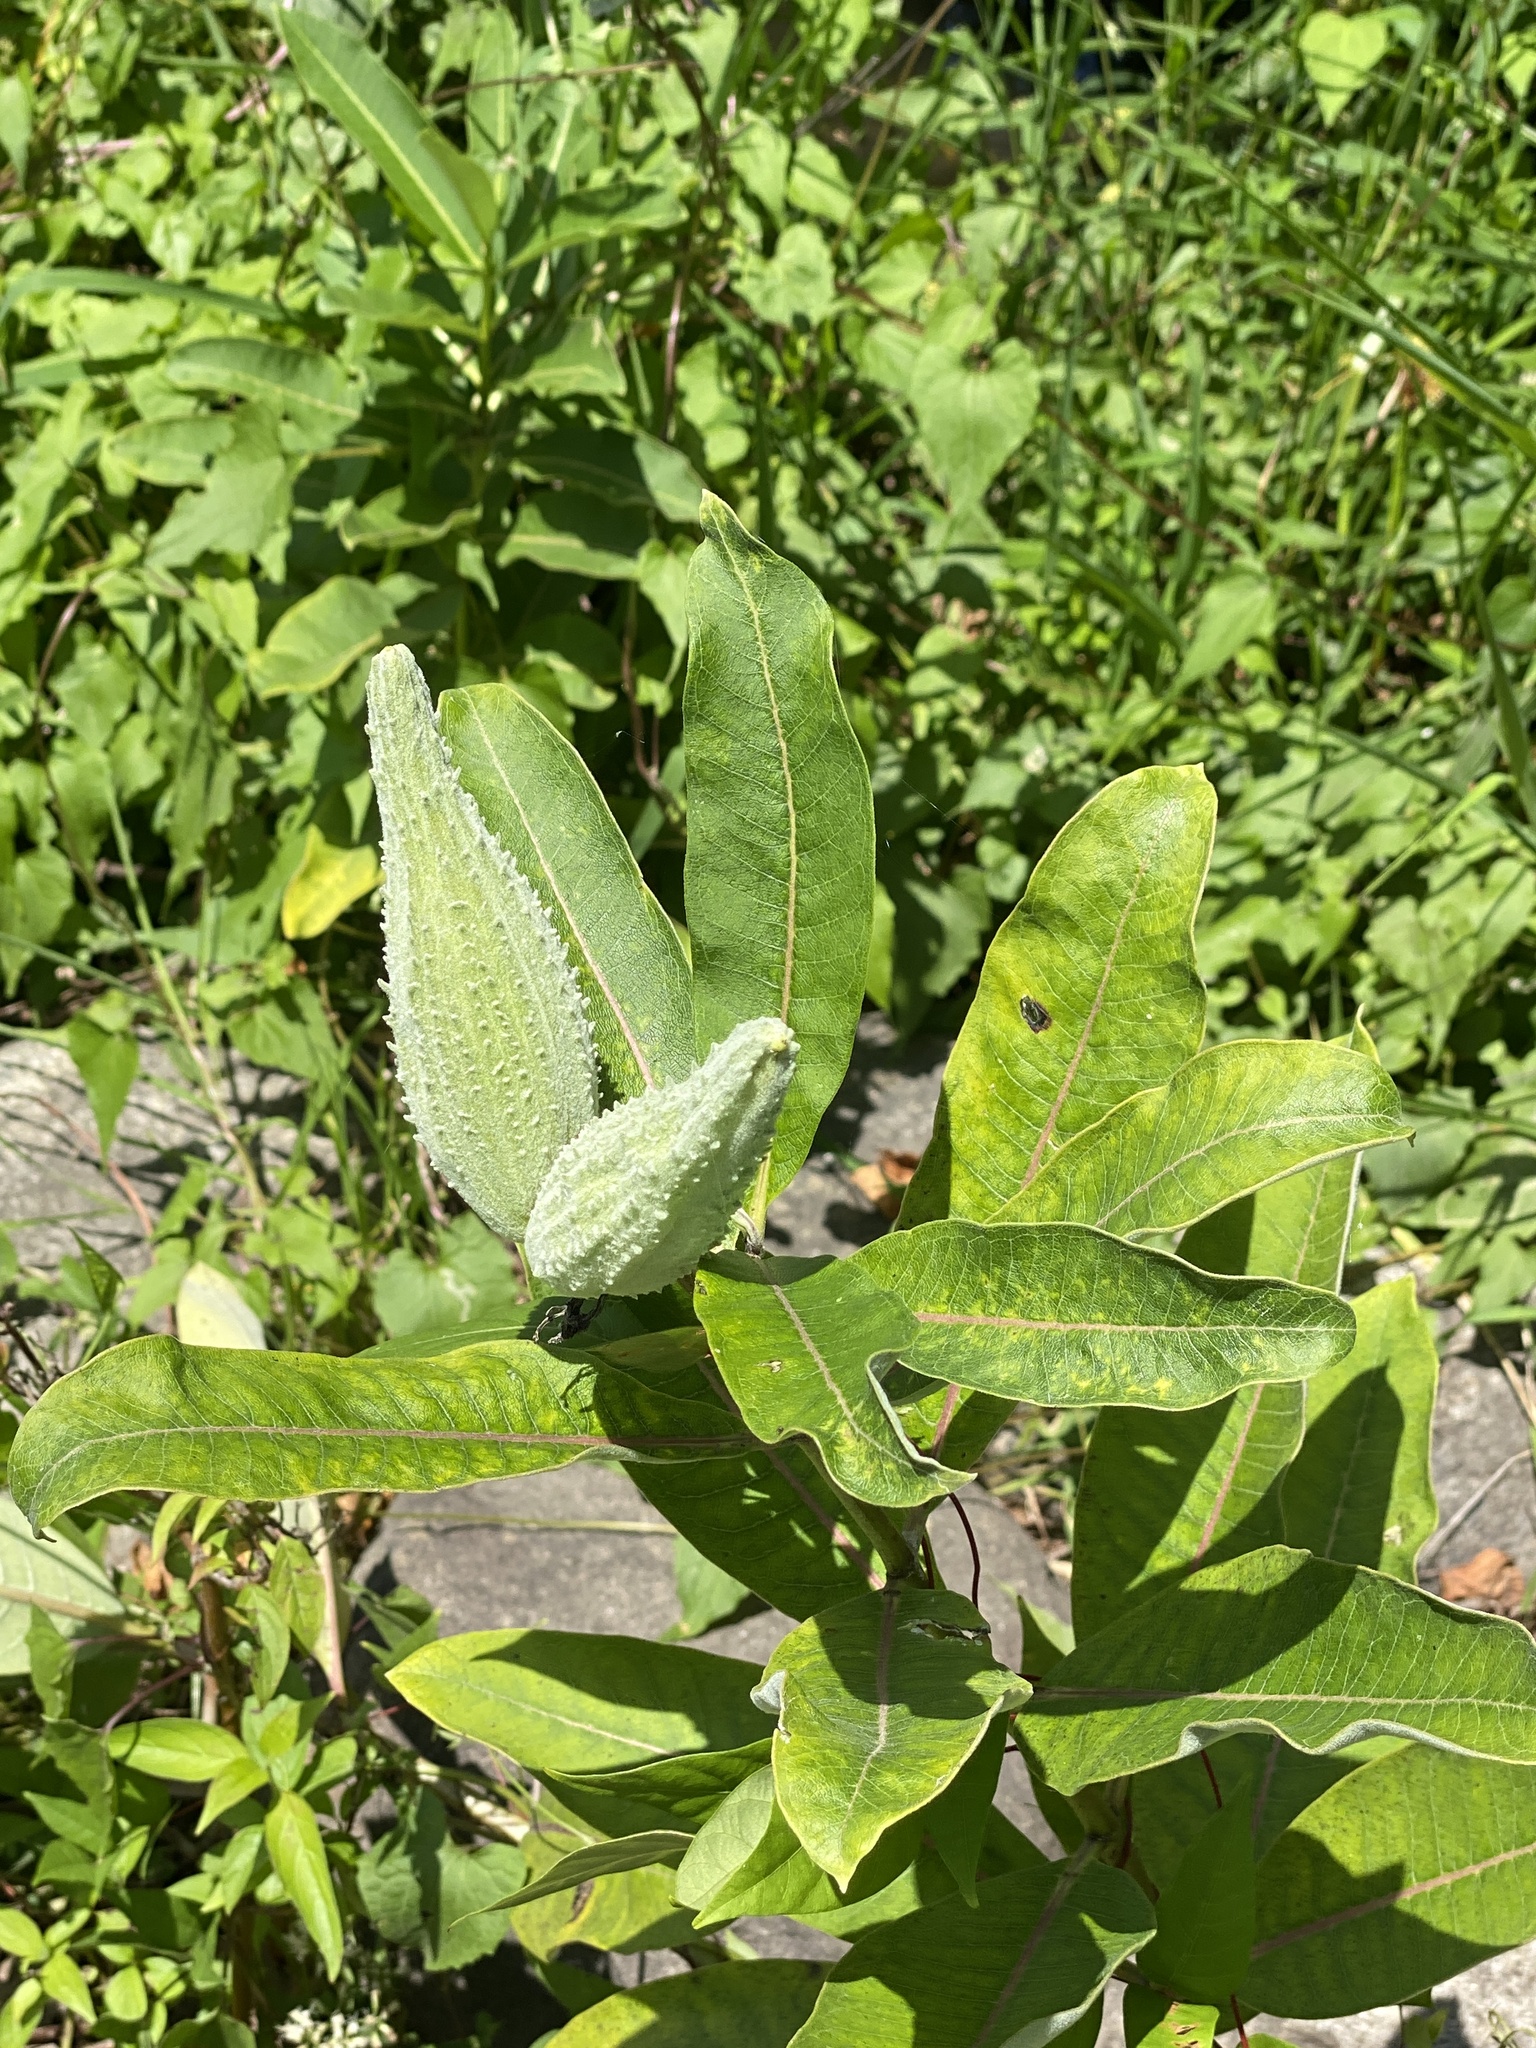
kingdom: Plantae
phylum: Tracheophyta
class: Magnoliopsida
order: Gentianales
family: Apocynaceae
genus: Asclepias
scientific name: Asclepias syriaca
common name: Common milkweed
